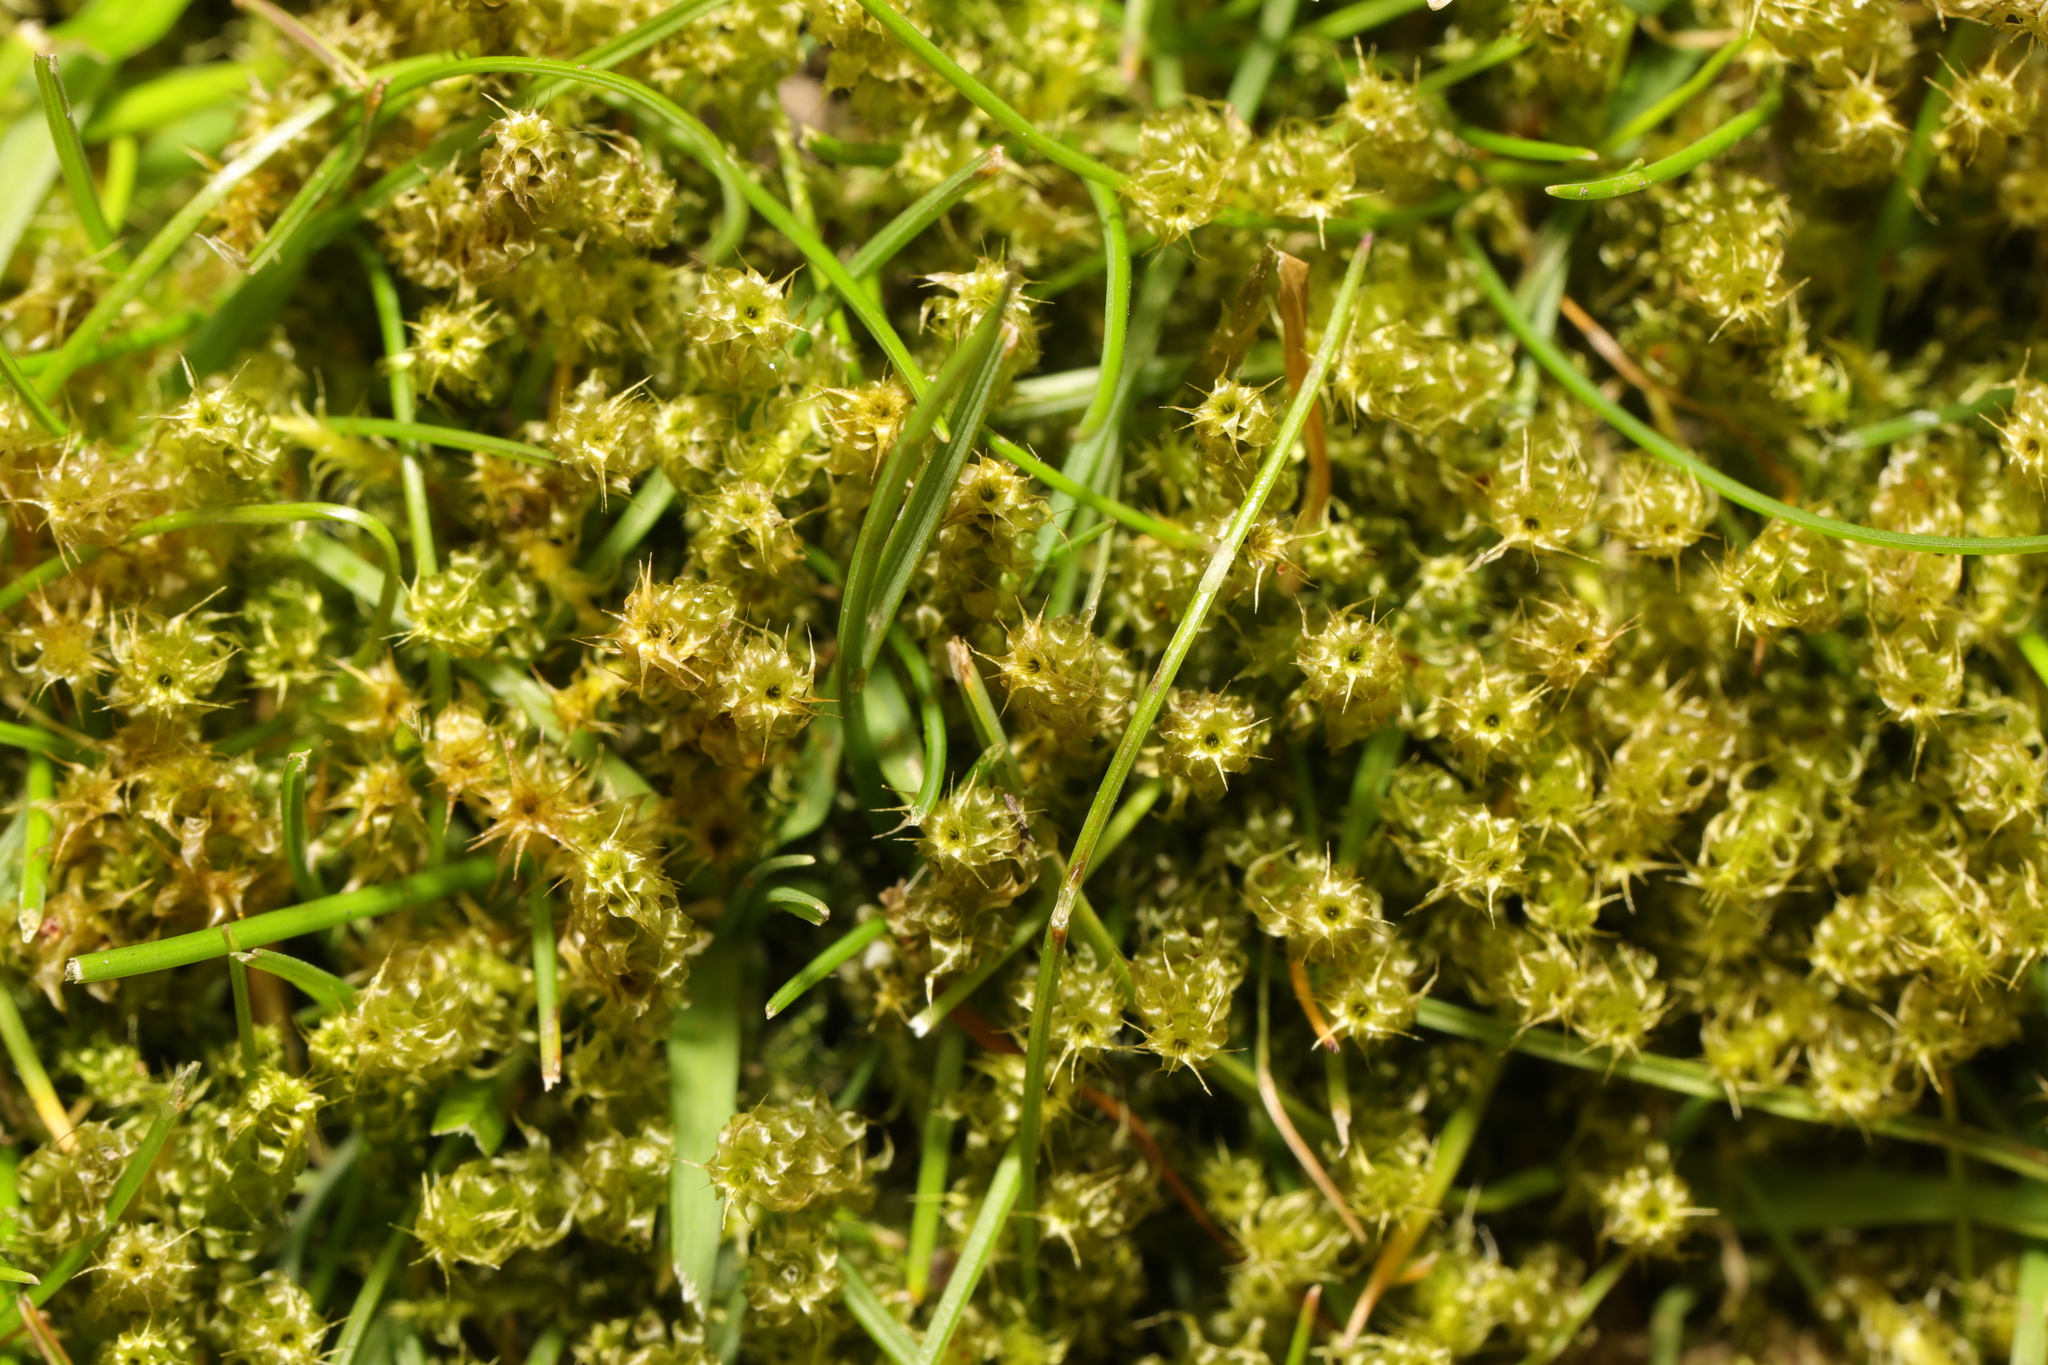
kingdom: Plantae
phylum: Bryophyta
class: Bryopsida
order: Hypnales
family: Hylocomiaceae
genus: Rhytidiadelphus
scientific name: Rhytidiadelphus squarrosus
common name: Springy turf-moss
